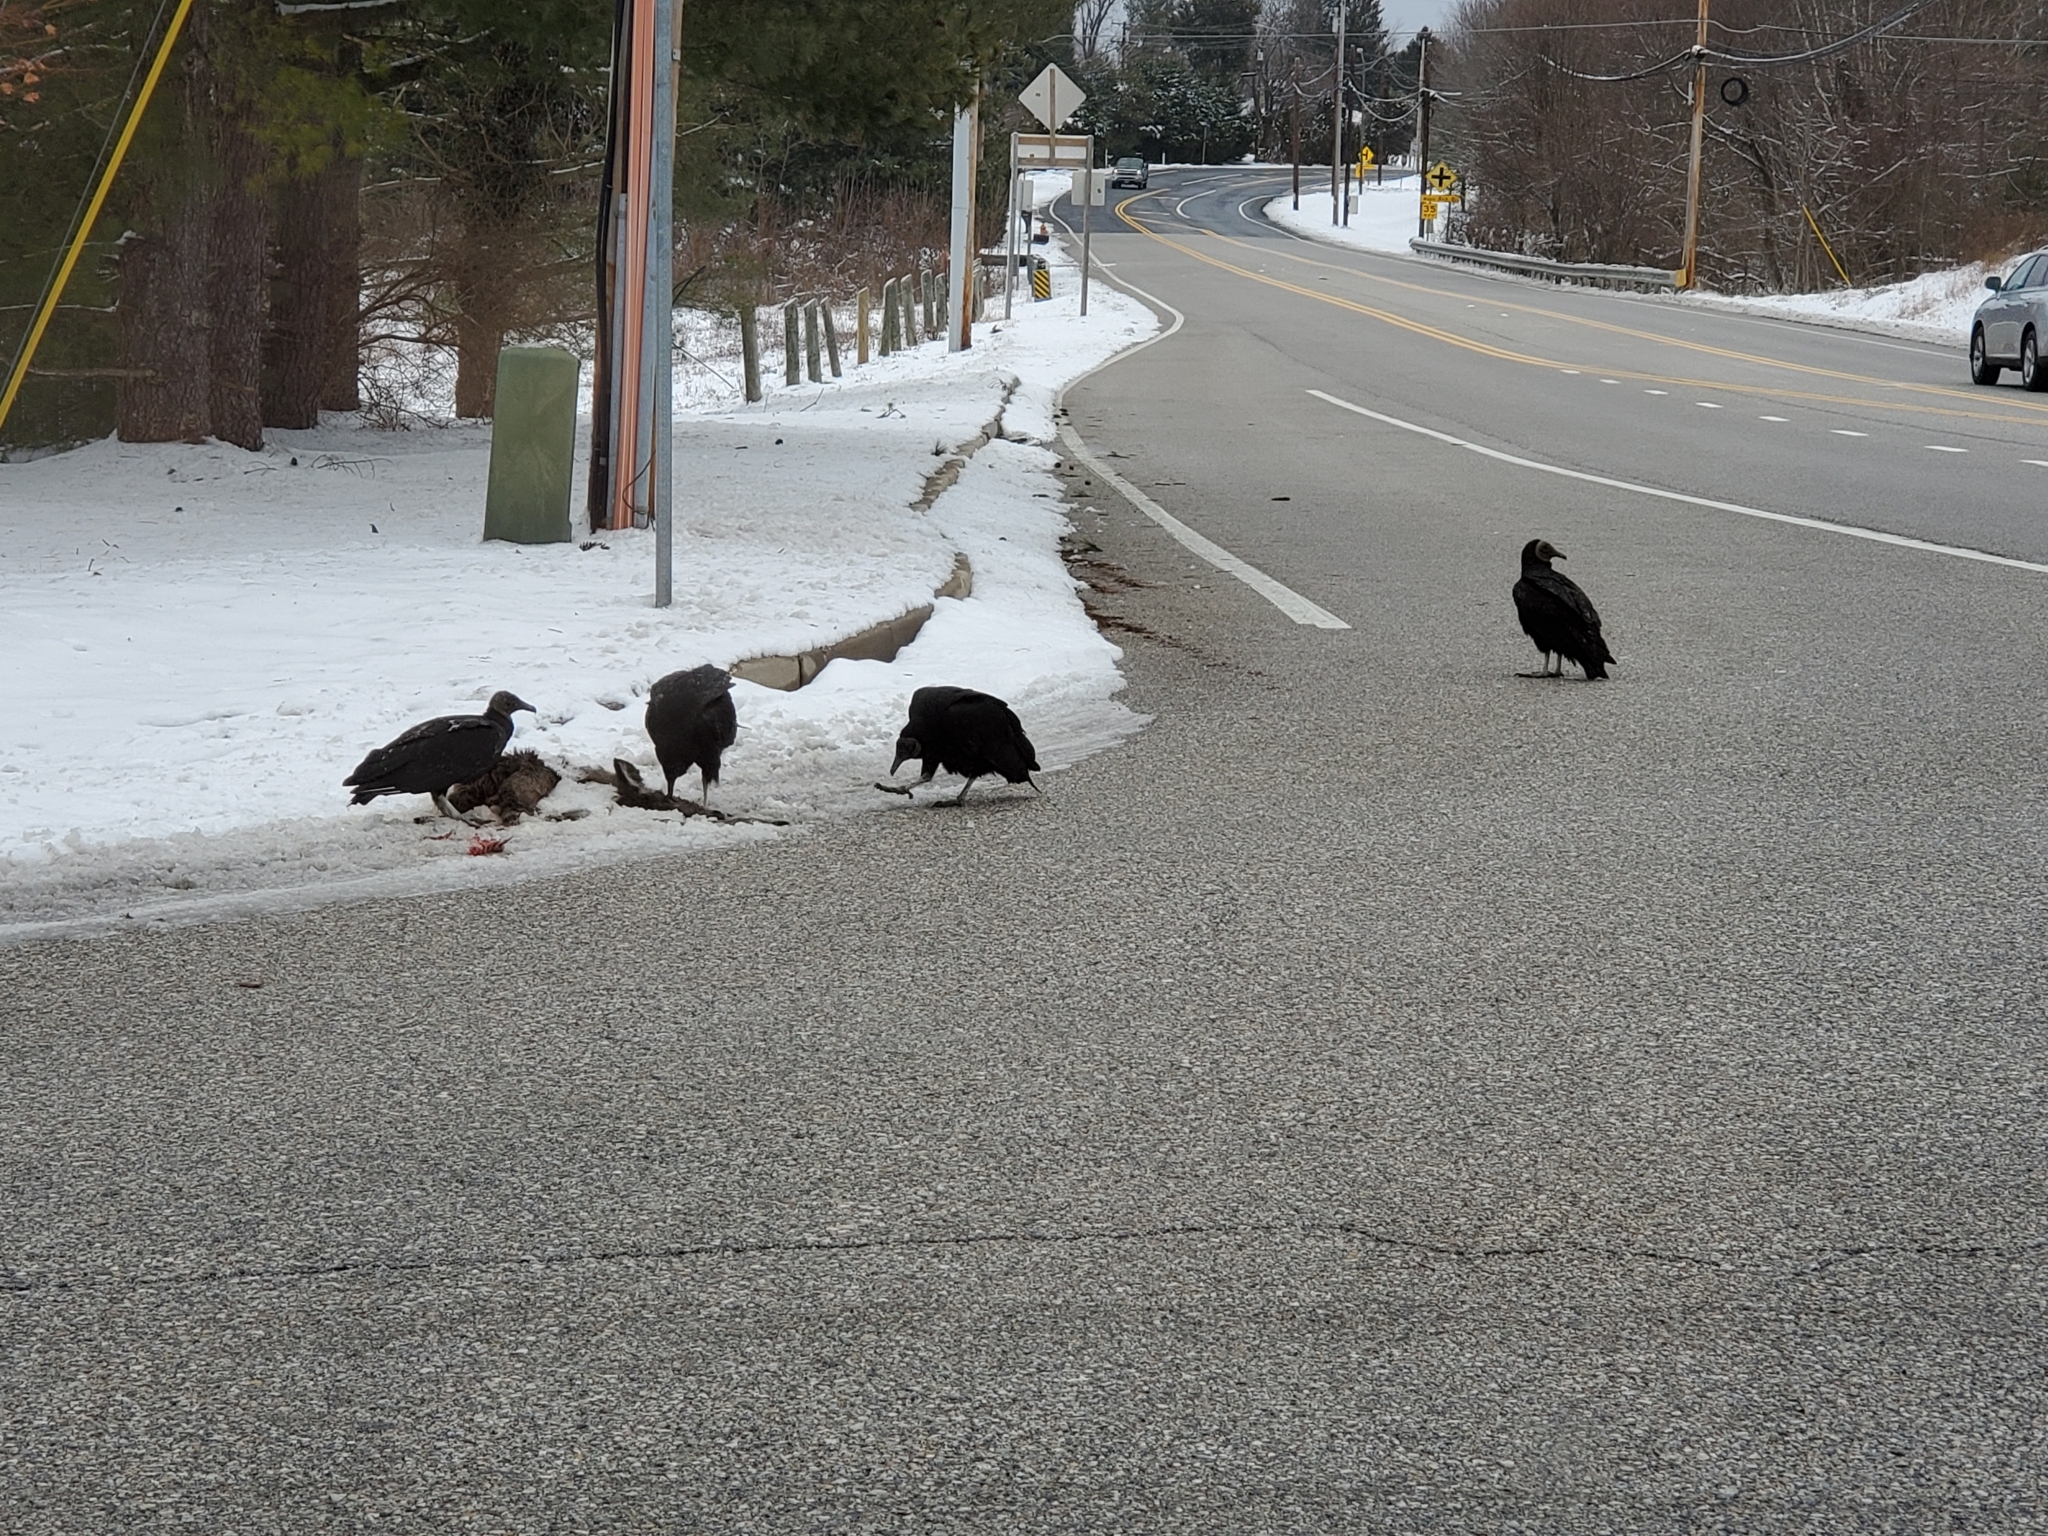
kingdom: Animalia
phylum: Chordata
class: Aves
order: Accipitriformes
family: Cathartidae
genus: Coragyps
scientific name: Coragyps atratus
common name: Black vulture
